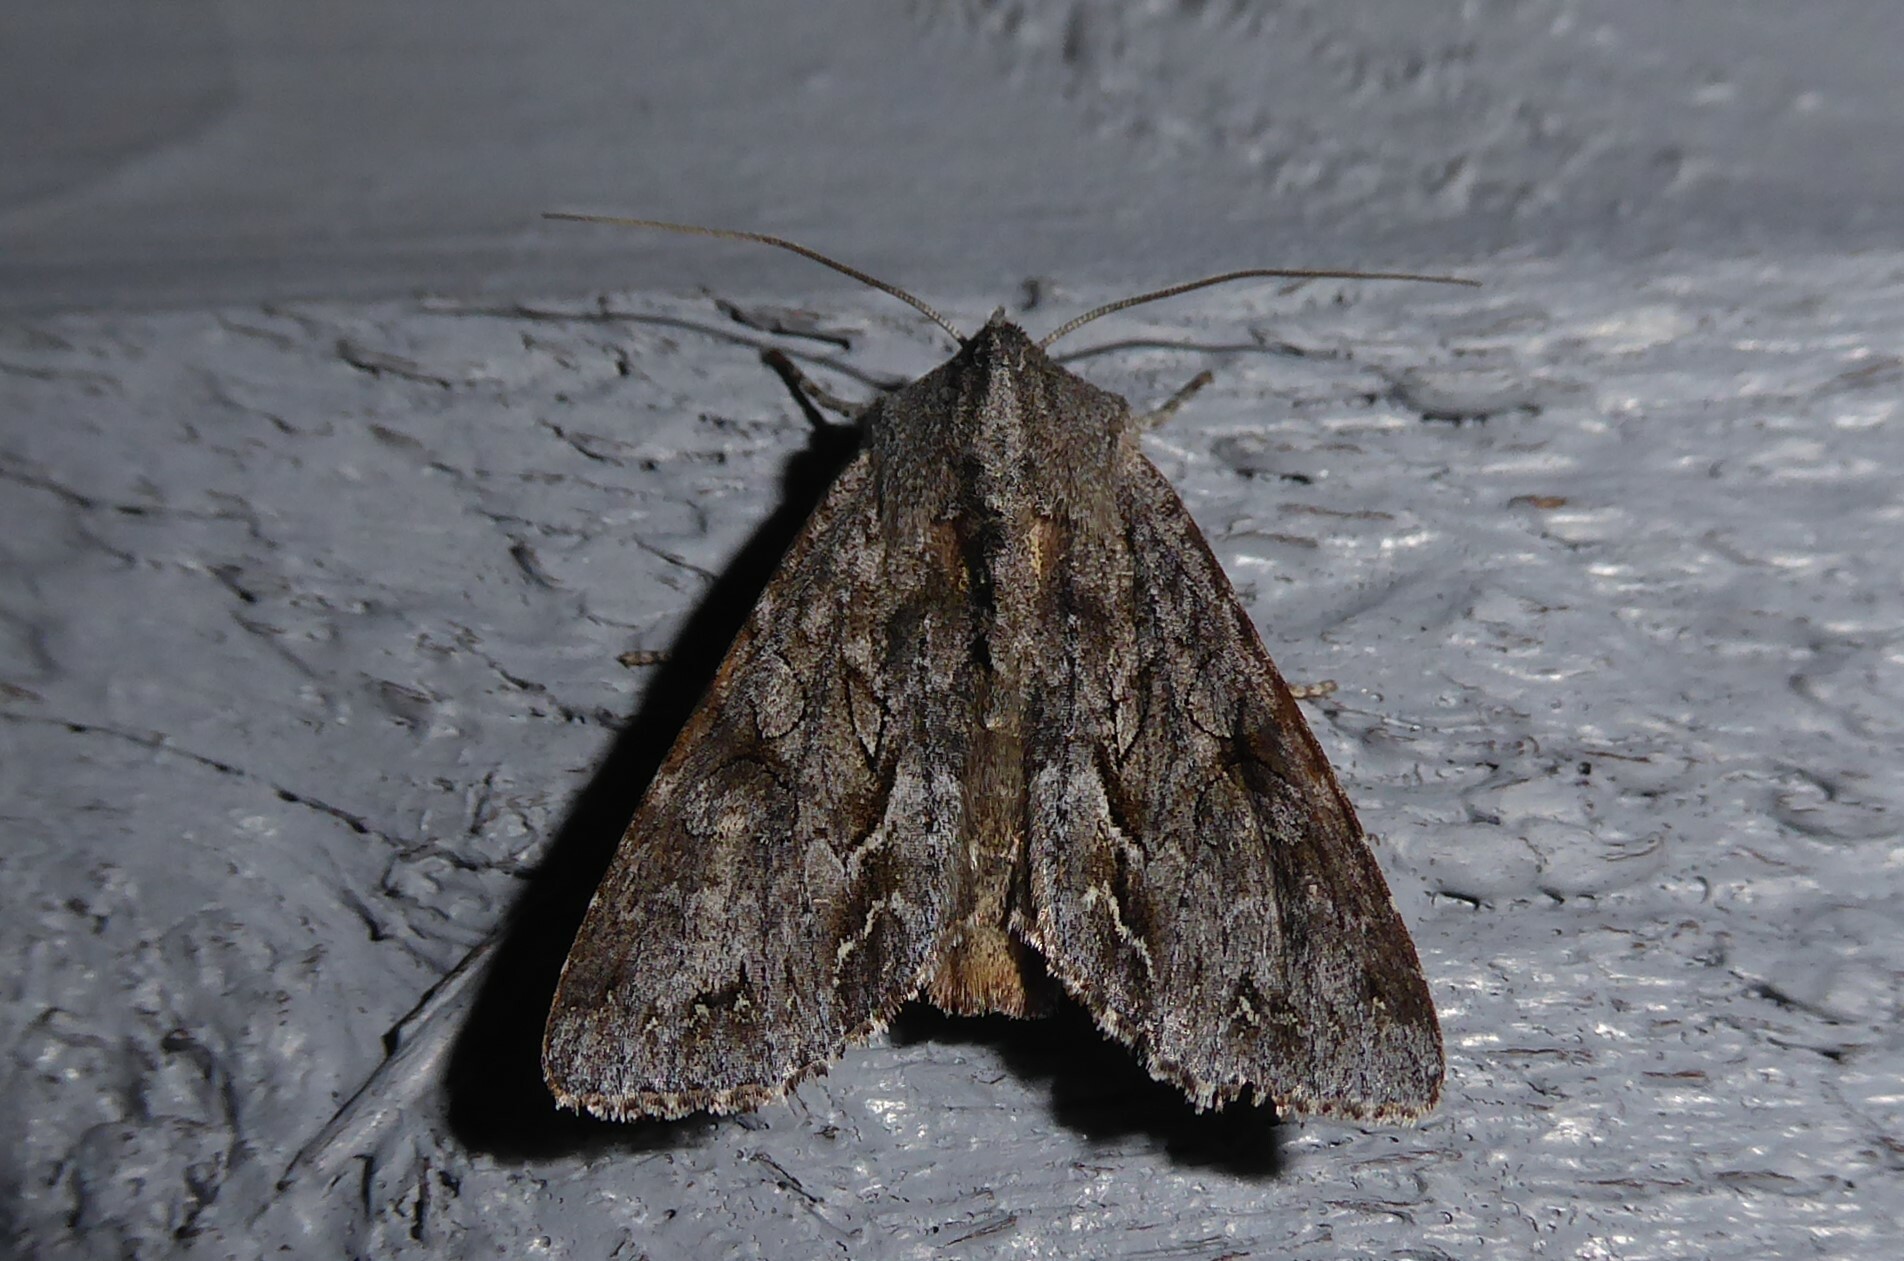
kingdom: Animalia
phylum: Arthropoda
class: Insecta
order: Lepidoptera
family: Noctuidae
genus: Ichneutica
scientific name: Ichneutica
